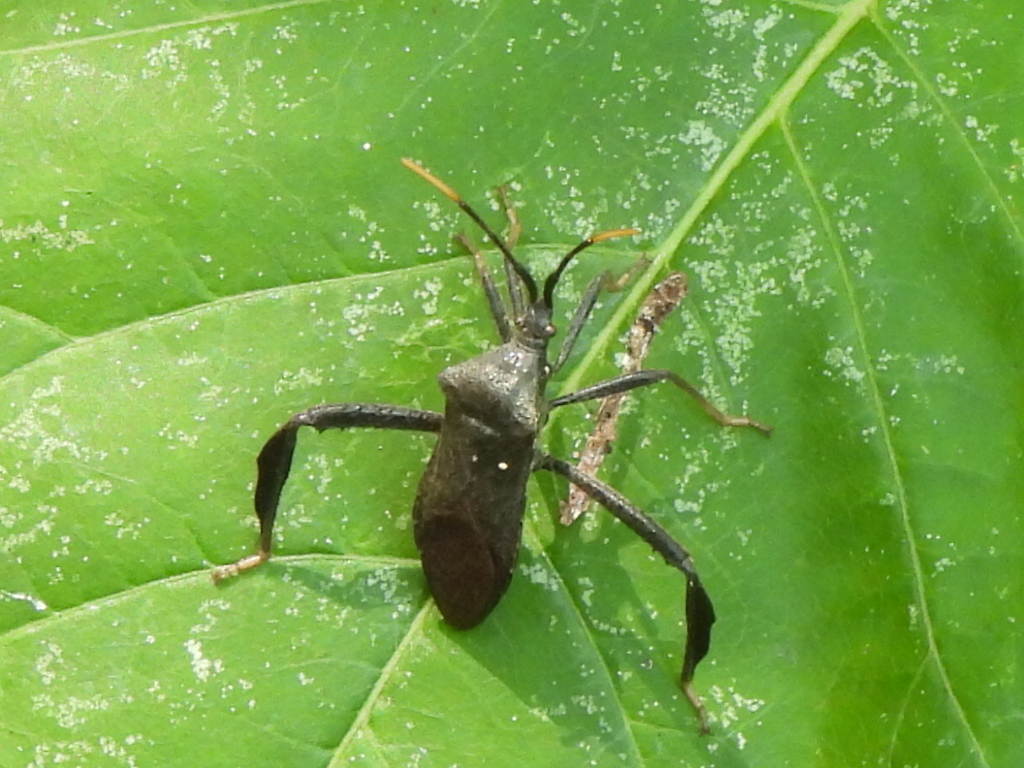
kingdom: Animalia
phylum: Arthropoda
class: Insecta
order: Hemiptera
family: Coreidae
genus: Acanthocephala
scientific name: Acanthocephala terminalis
